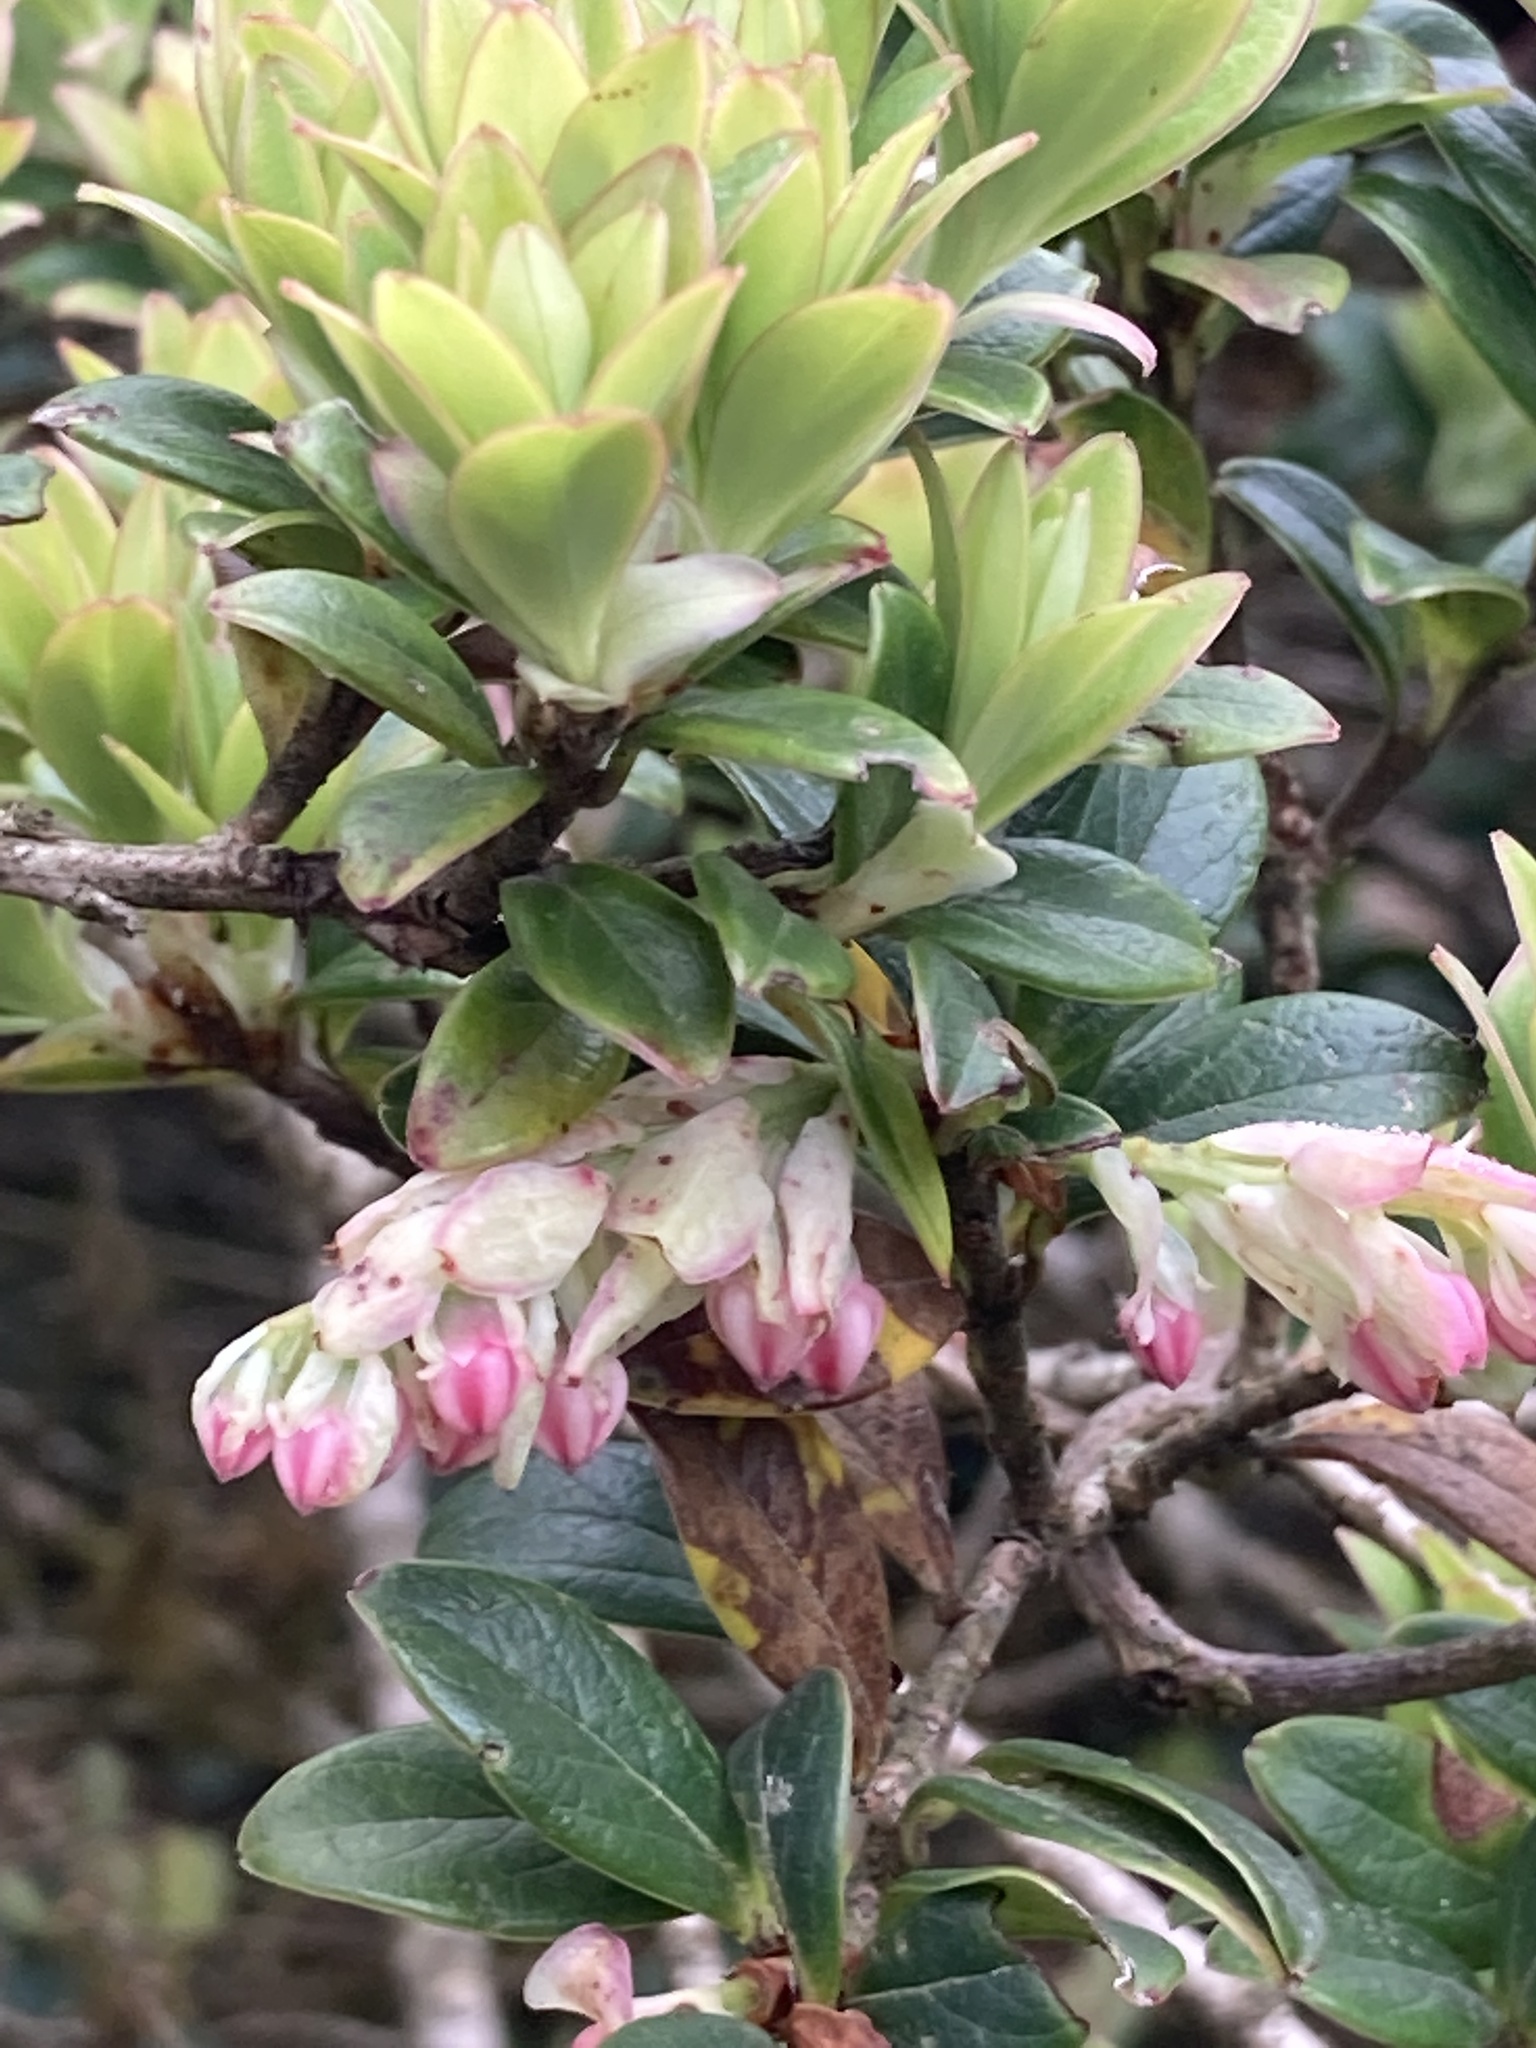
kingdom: Plantae
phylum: Tracheophyta
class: Magnoliopsida
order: Ericales
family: Ericaceae
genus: Vaccinium
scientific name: Vaccinium retusum
